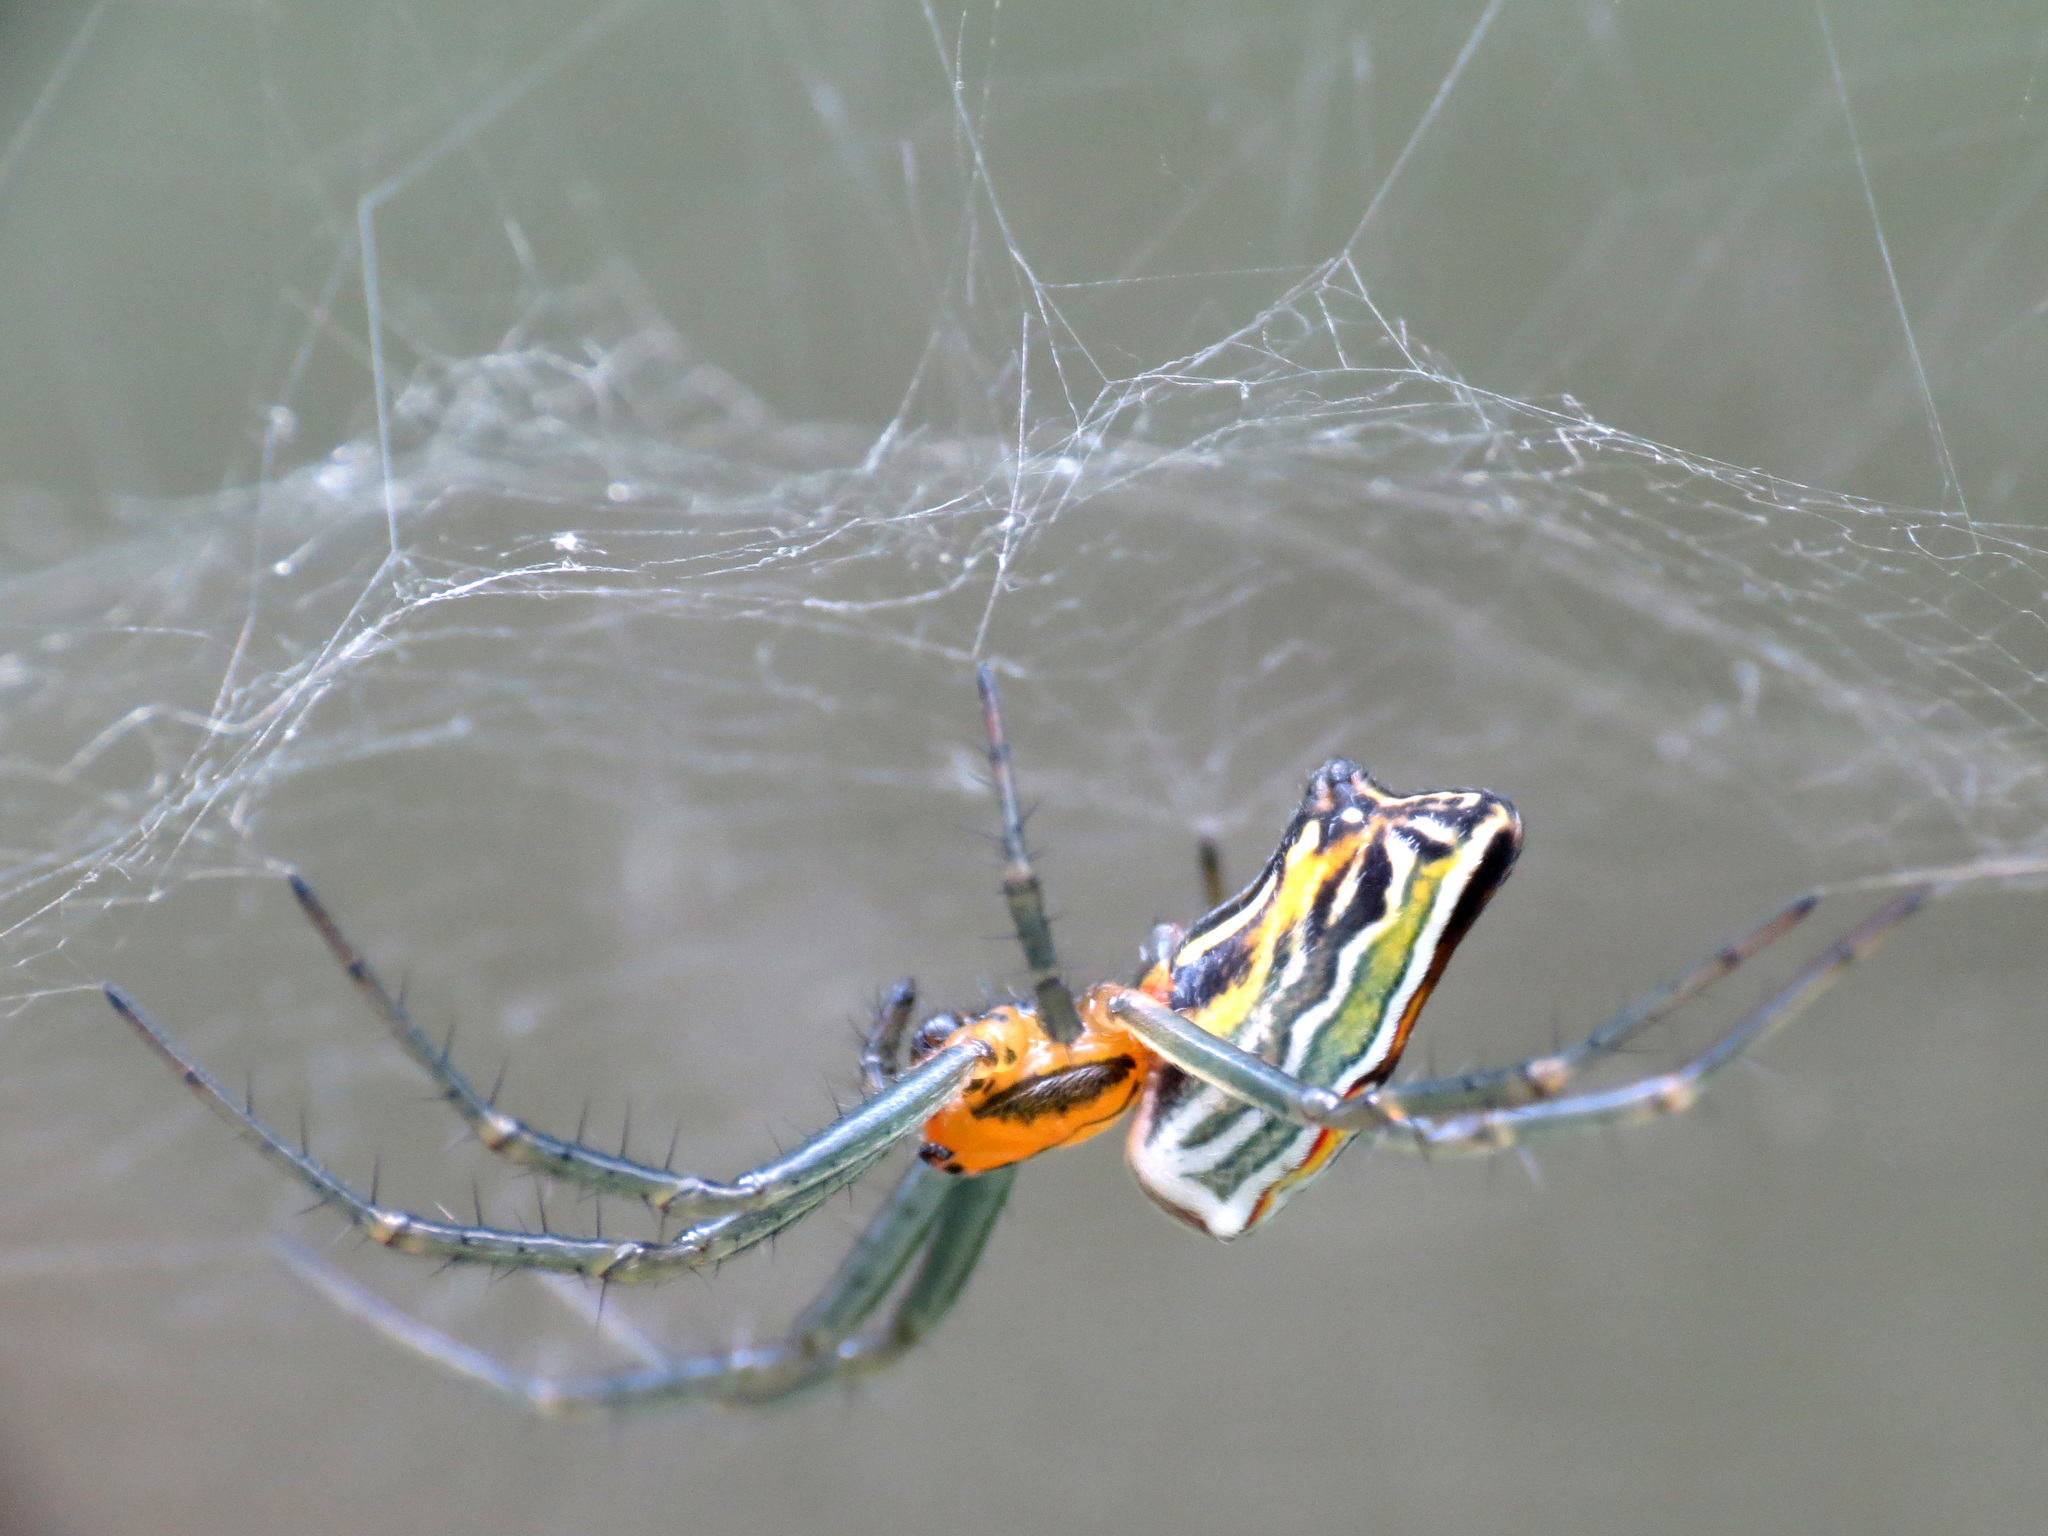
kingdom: Animalia
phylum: Arthropoda
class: Arachnida
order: Araneae
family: Araneidae
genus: Mecynogea
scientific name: Mecynogea lemniscata
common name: Orb weavers
